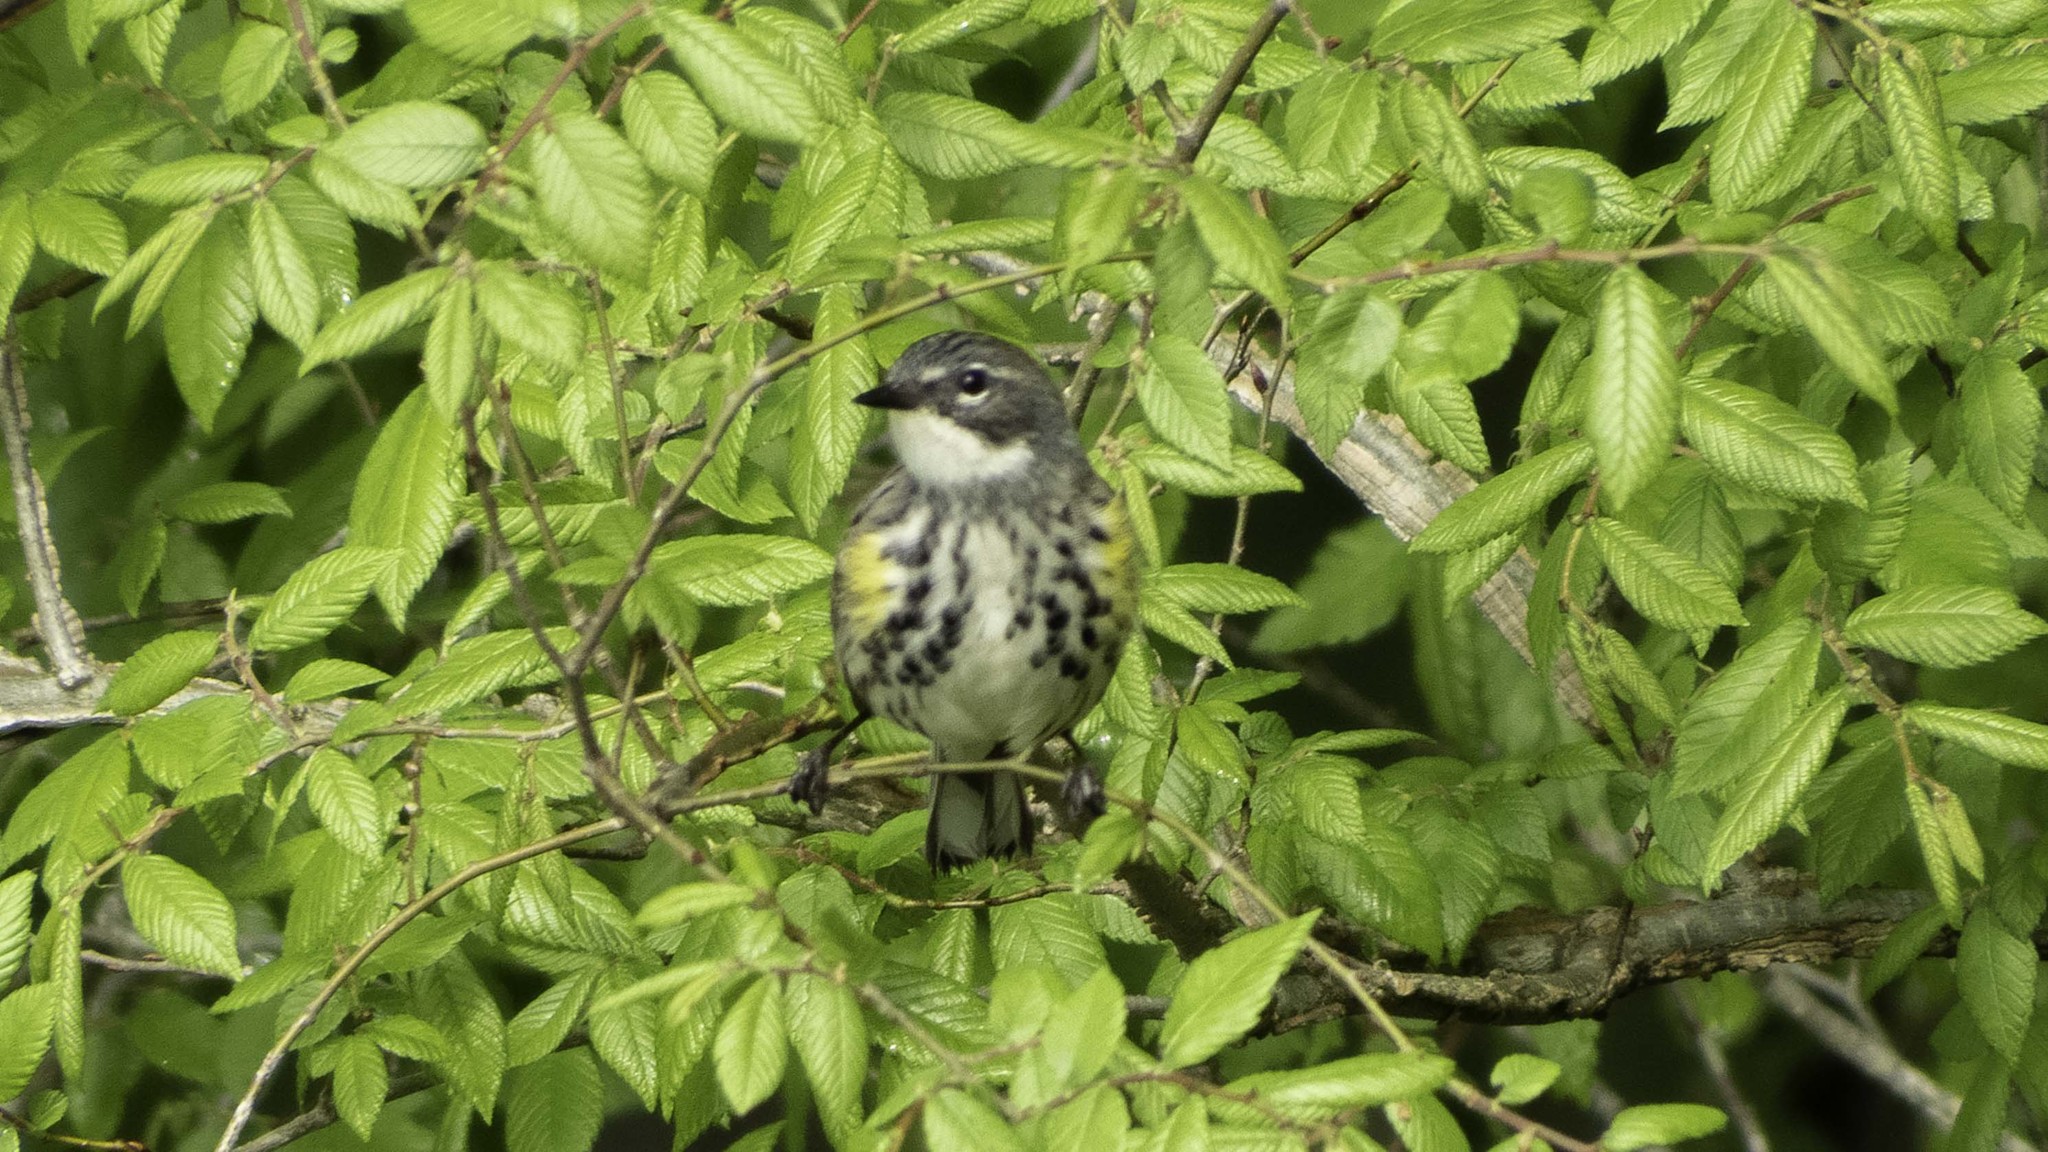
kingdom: Animalia
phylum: Chordata
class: Aves
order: Passeriformes
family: Parulidae
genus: Setophaga
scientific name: Setophaga coronata
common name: Myrtle warbler
